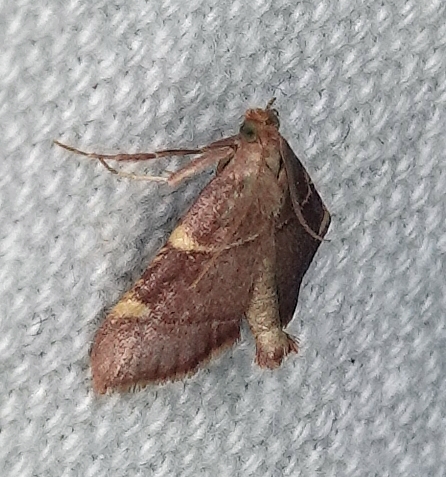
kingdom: Animalia
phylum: Arthropoda
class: Insecta
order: Lepidoptera
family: Pyralidae
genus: Hypsopygia
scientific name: Hypsopygia olinalis
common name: Yellow-fringed dolichomia moth
